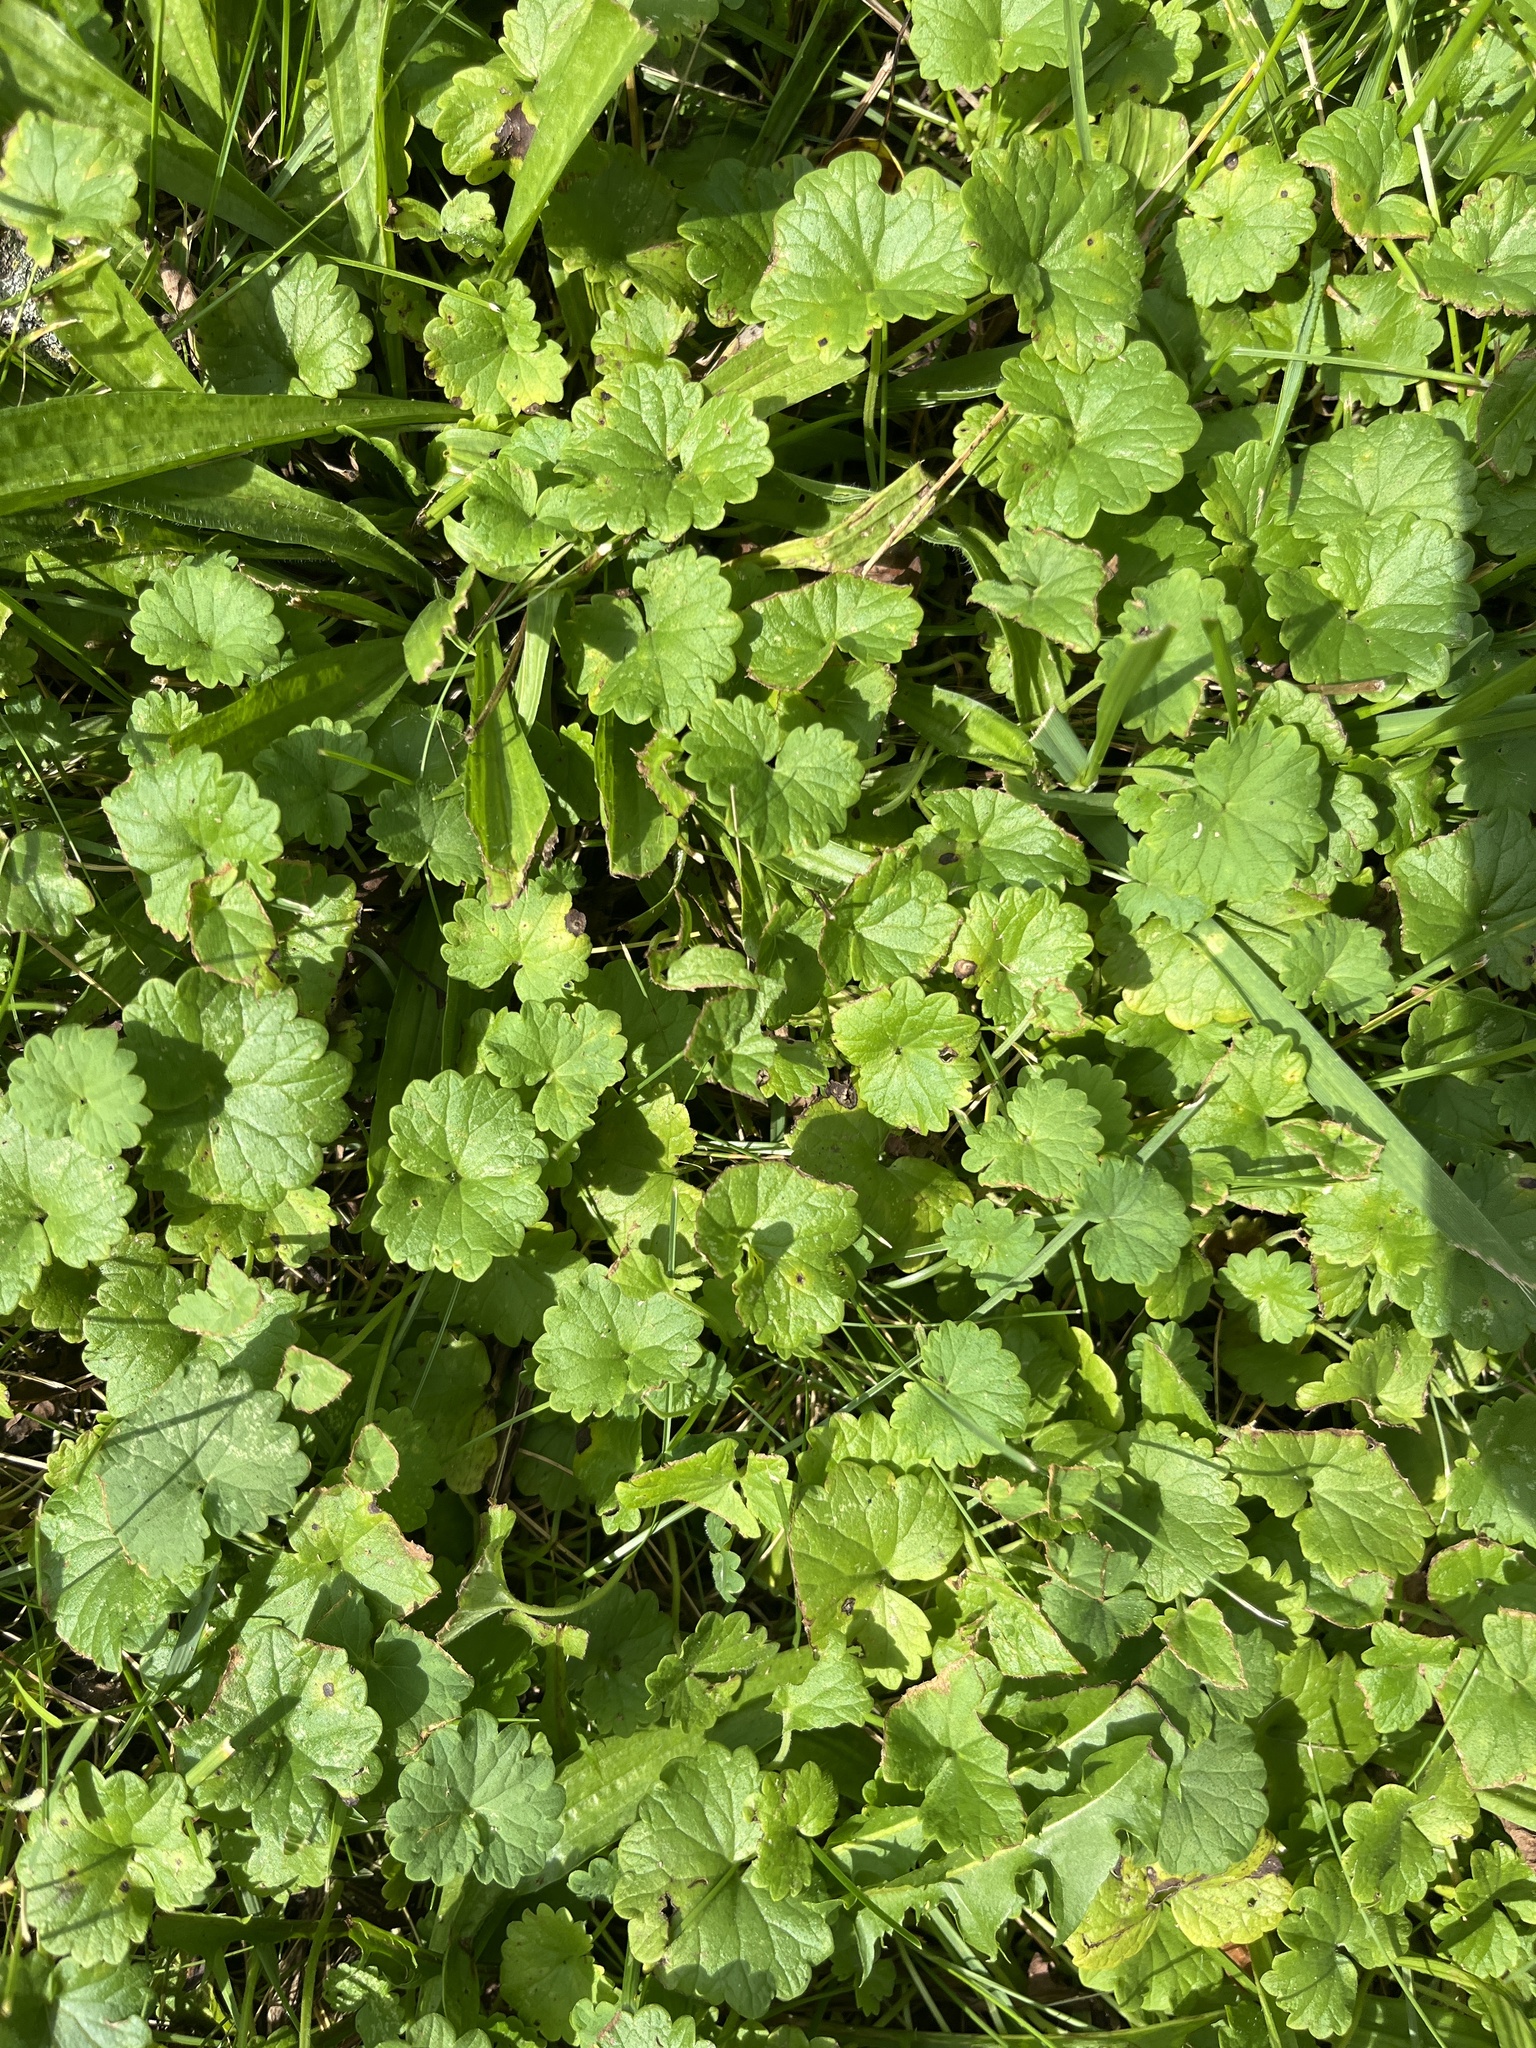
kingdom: Plantae
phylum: Tracheophyta
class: Magnoliopsida
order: Lamiales
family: Lamiaceae
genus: Glechoma
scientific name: Glechoma hederacea
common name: Ground ivy
